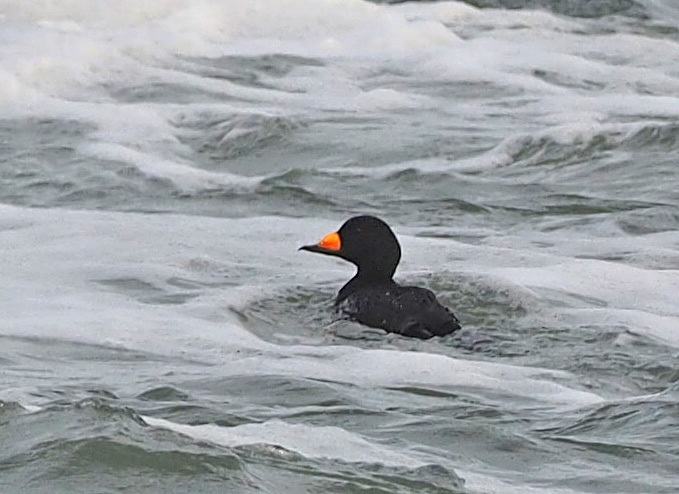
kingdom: Animalia
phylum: Chordata
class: Aves
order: Anseriformes
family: Anatidae
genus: Melanitta
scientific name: Melanitta americana
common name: Black scoter
